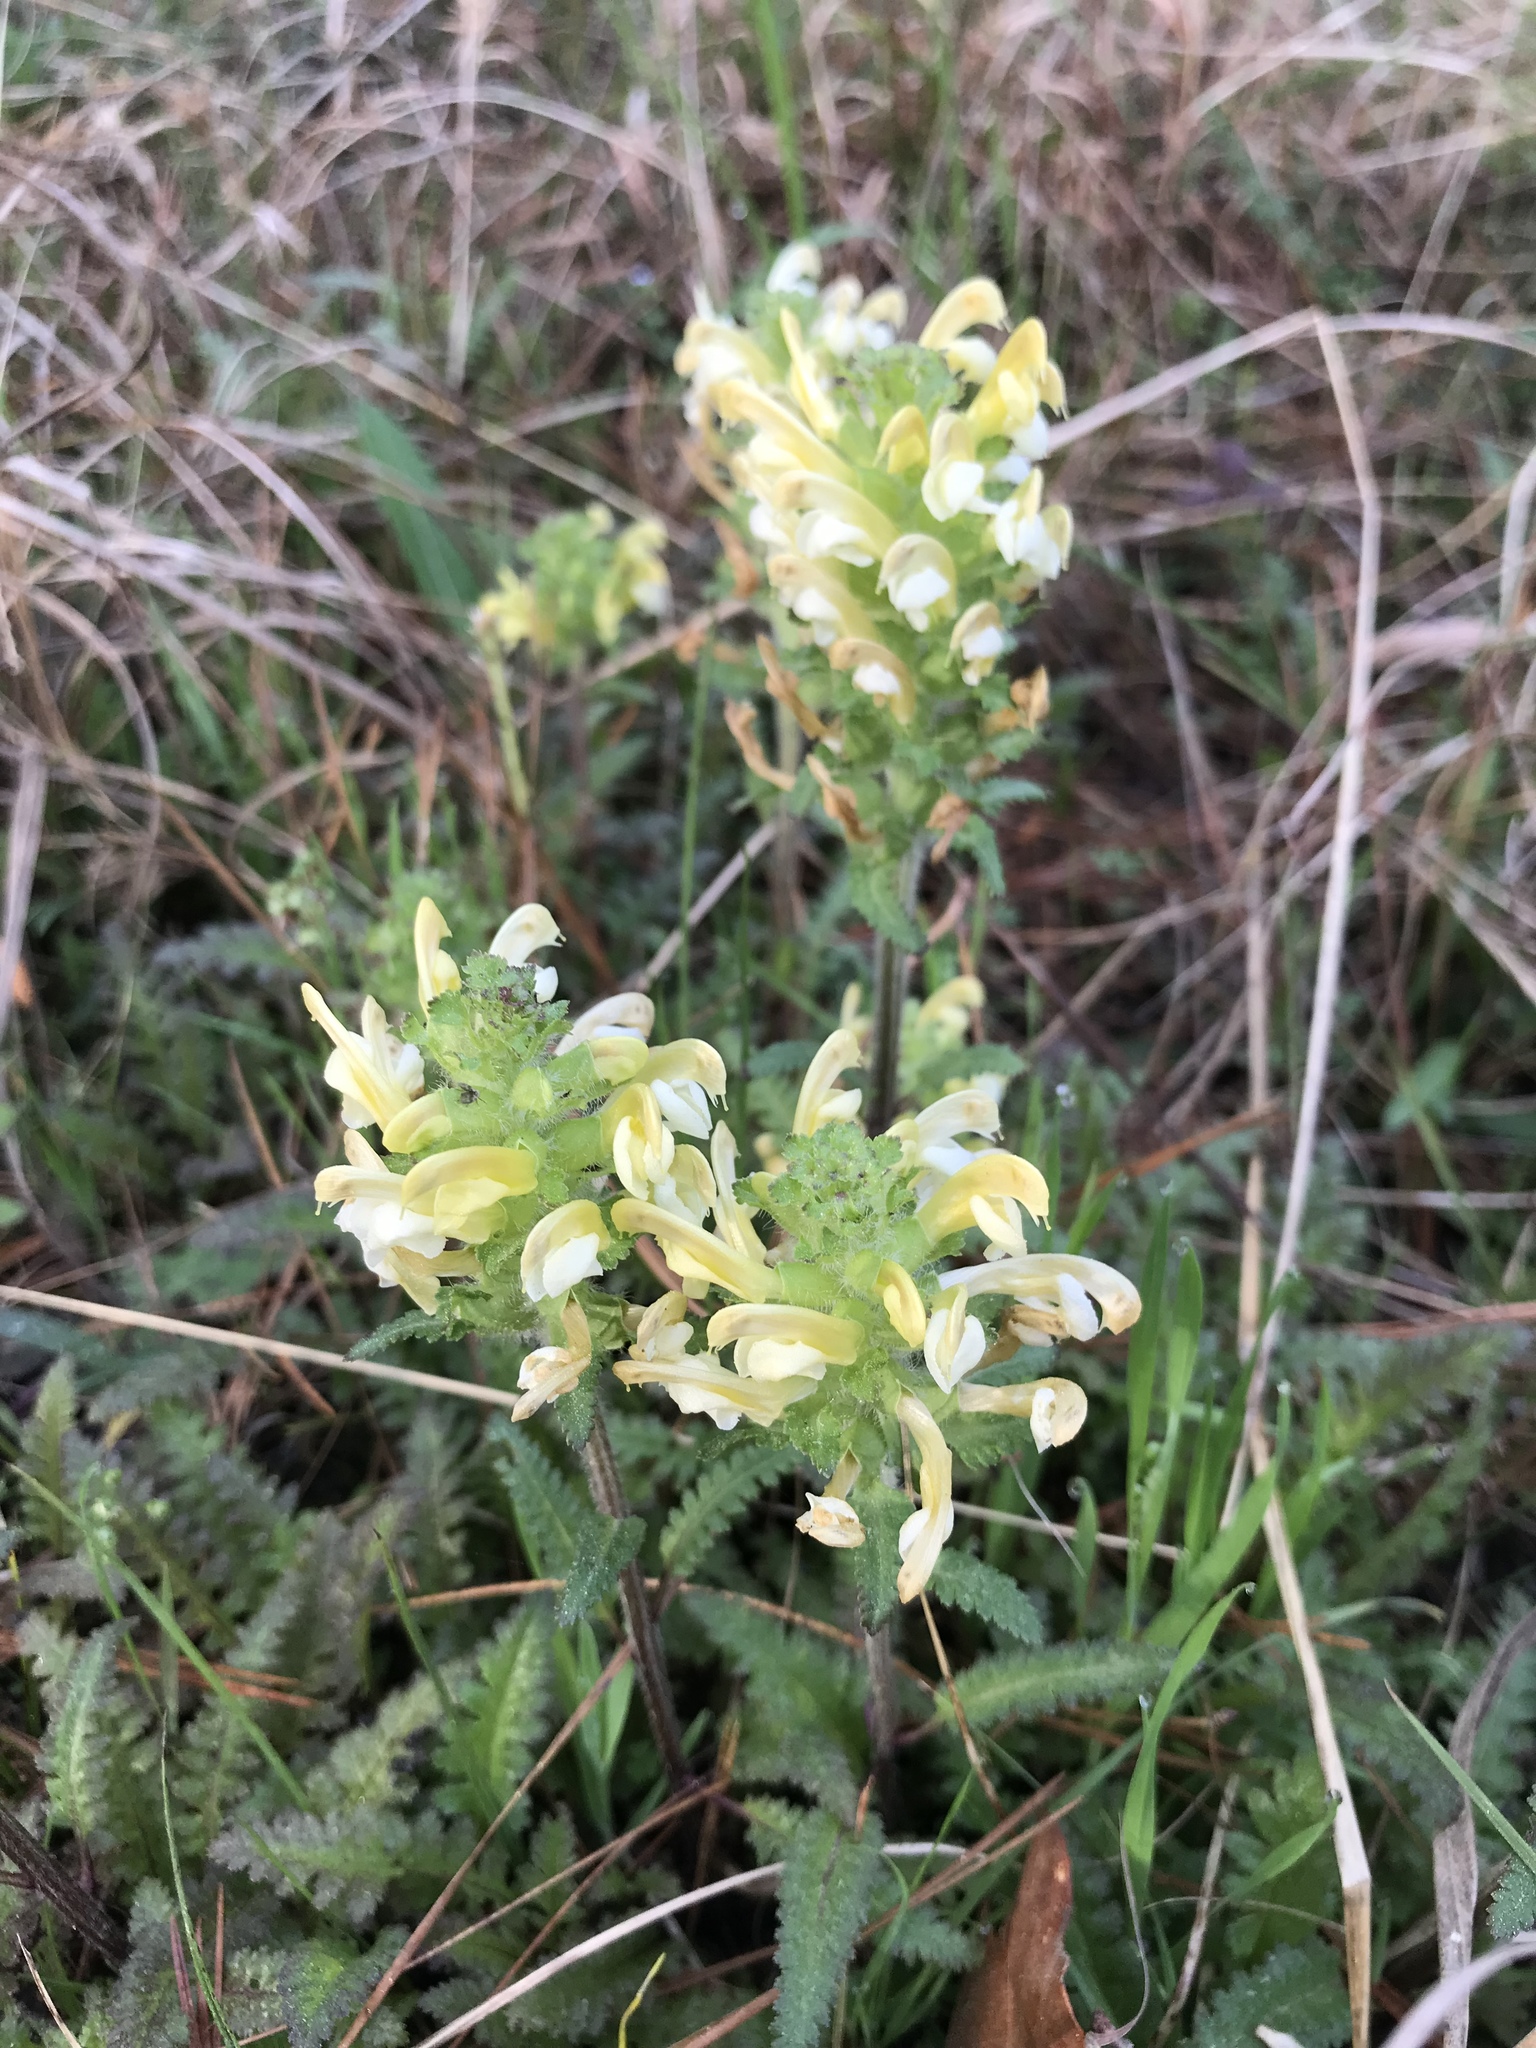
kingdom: Plantae
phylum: Tracheophyta
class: Magnoliopsida
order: Lamiales
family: Orobanchaceae
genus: Pedicularis
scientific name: Pedicularis canadensis
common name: Early lousewort
